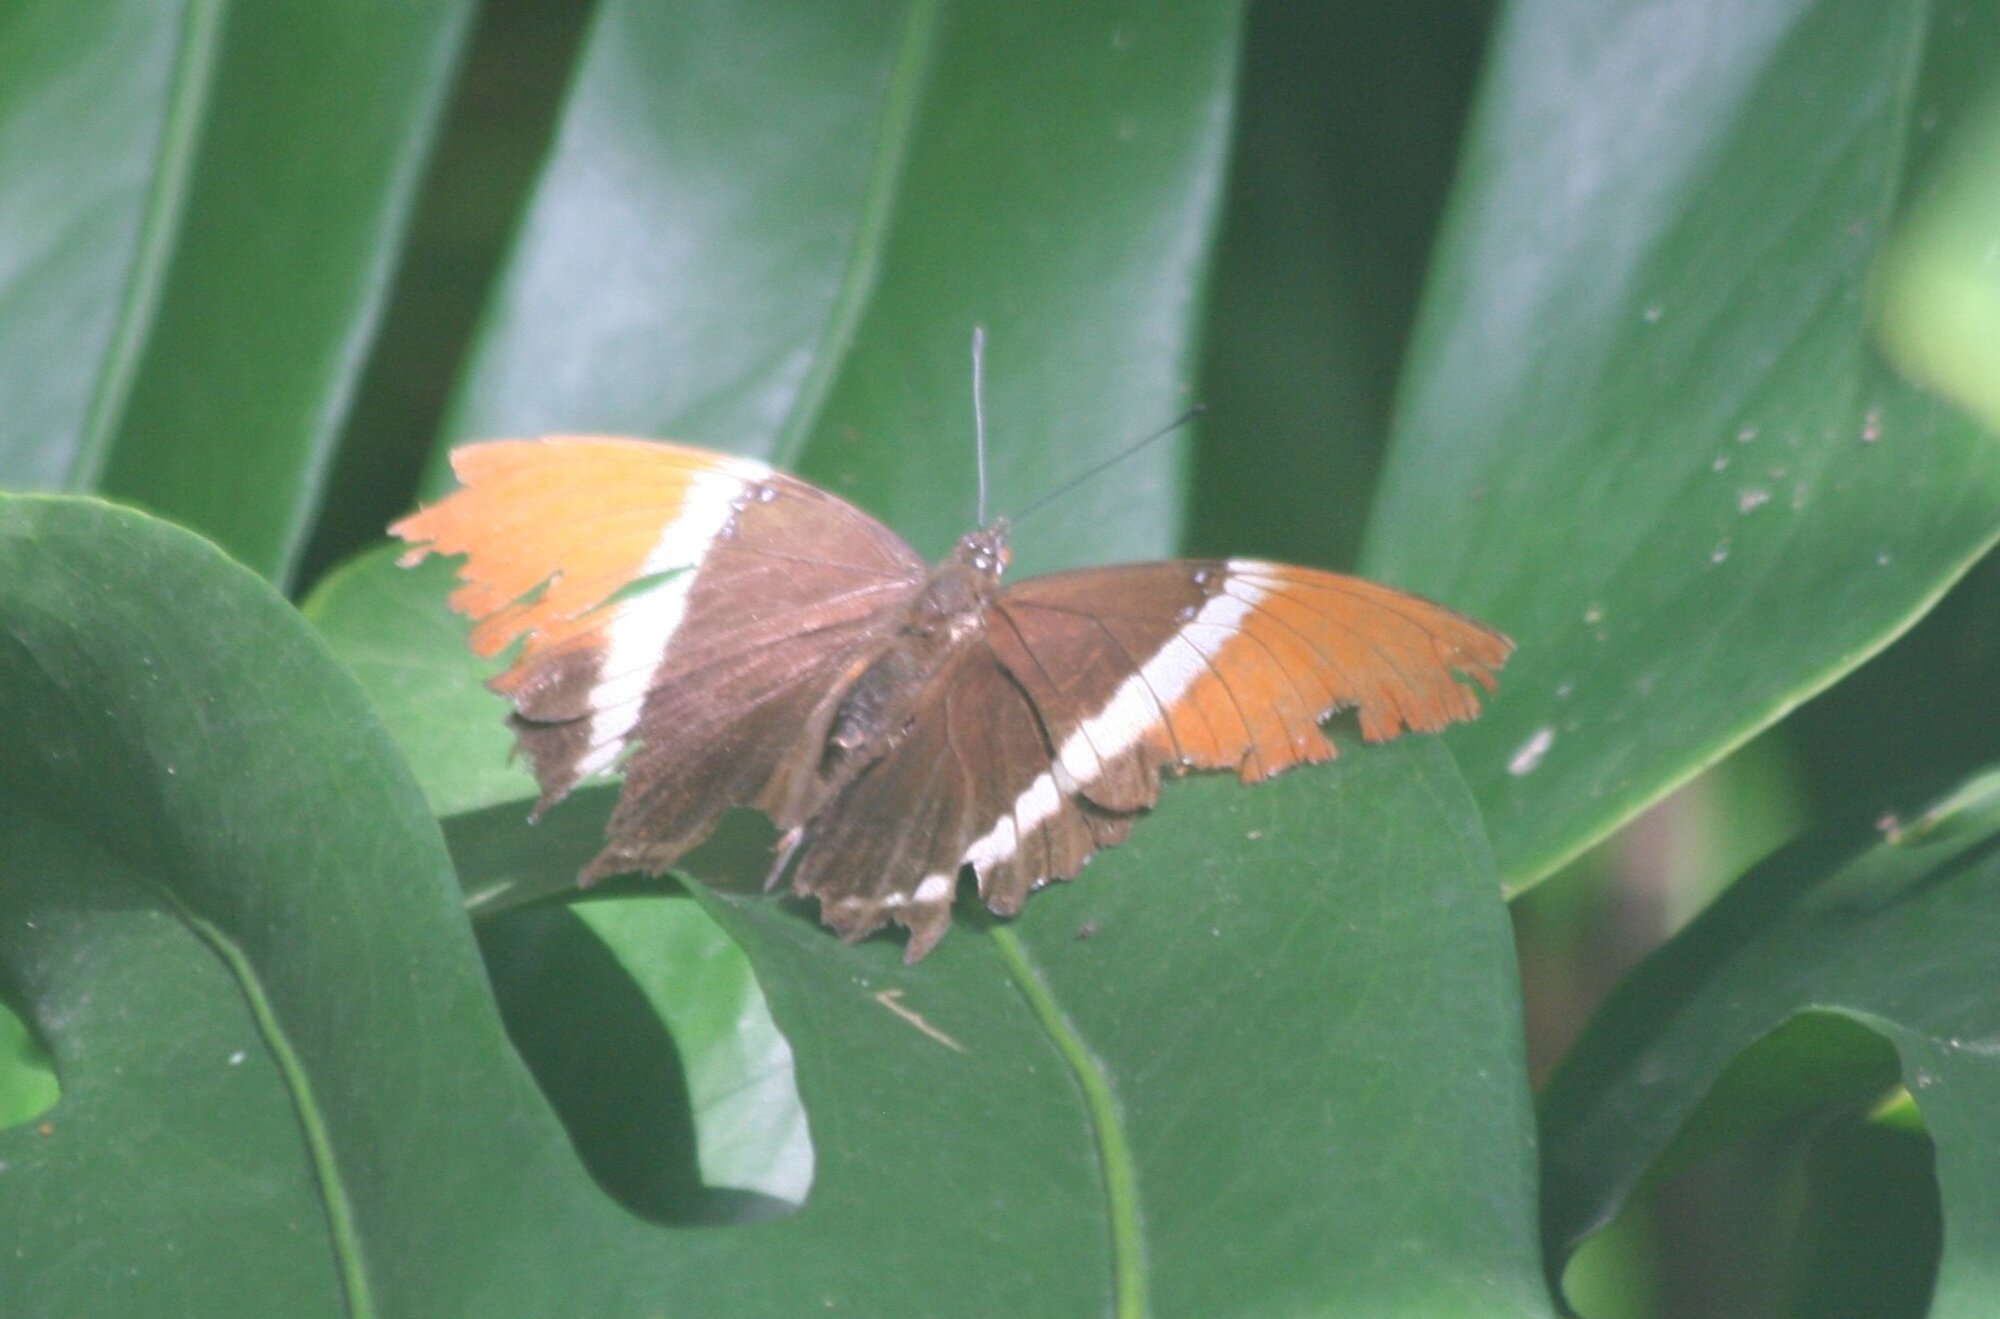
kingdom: Animalia
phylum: Arthropoda
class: Insecta
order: Lepidoptera
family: Nymphalidae
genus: Siproeta
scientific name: Siproeta epaphus
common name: Rusty-tipped page
